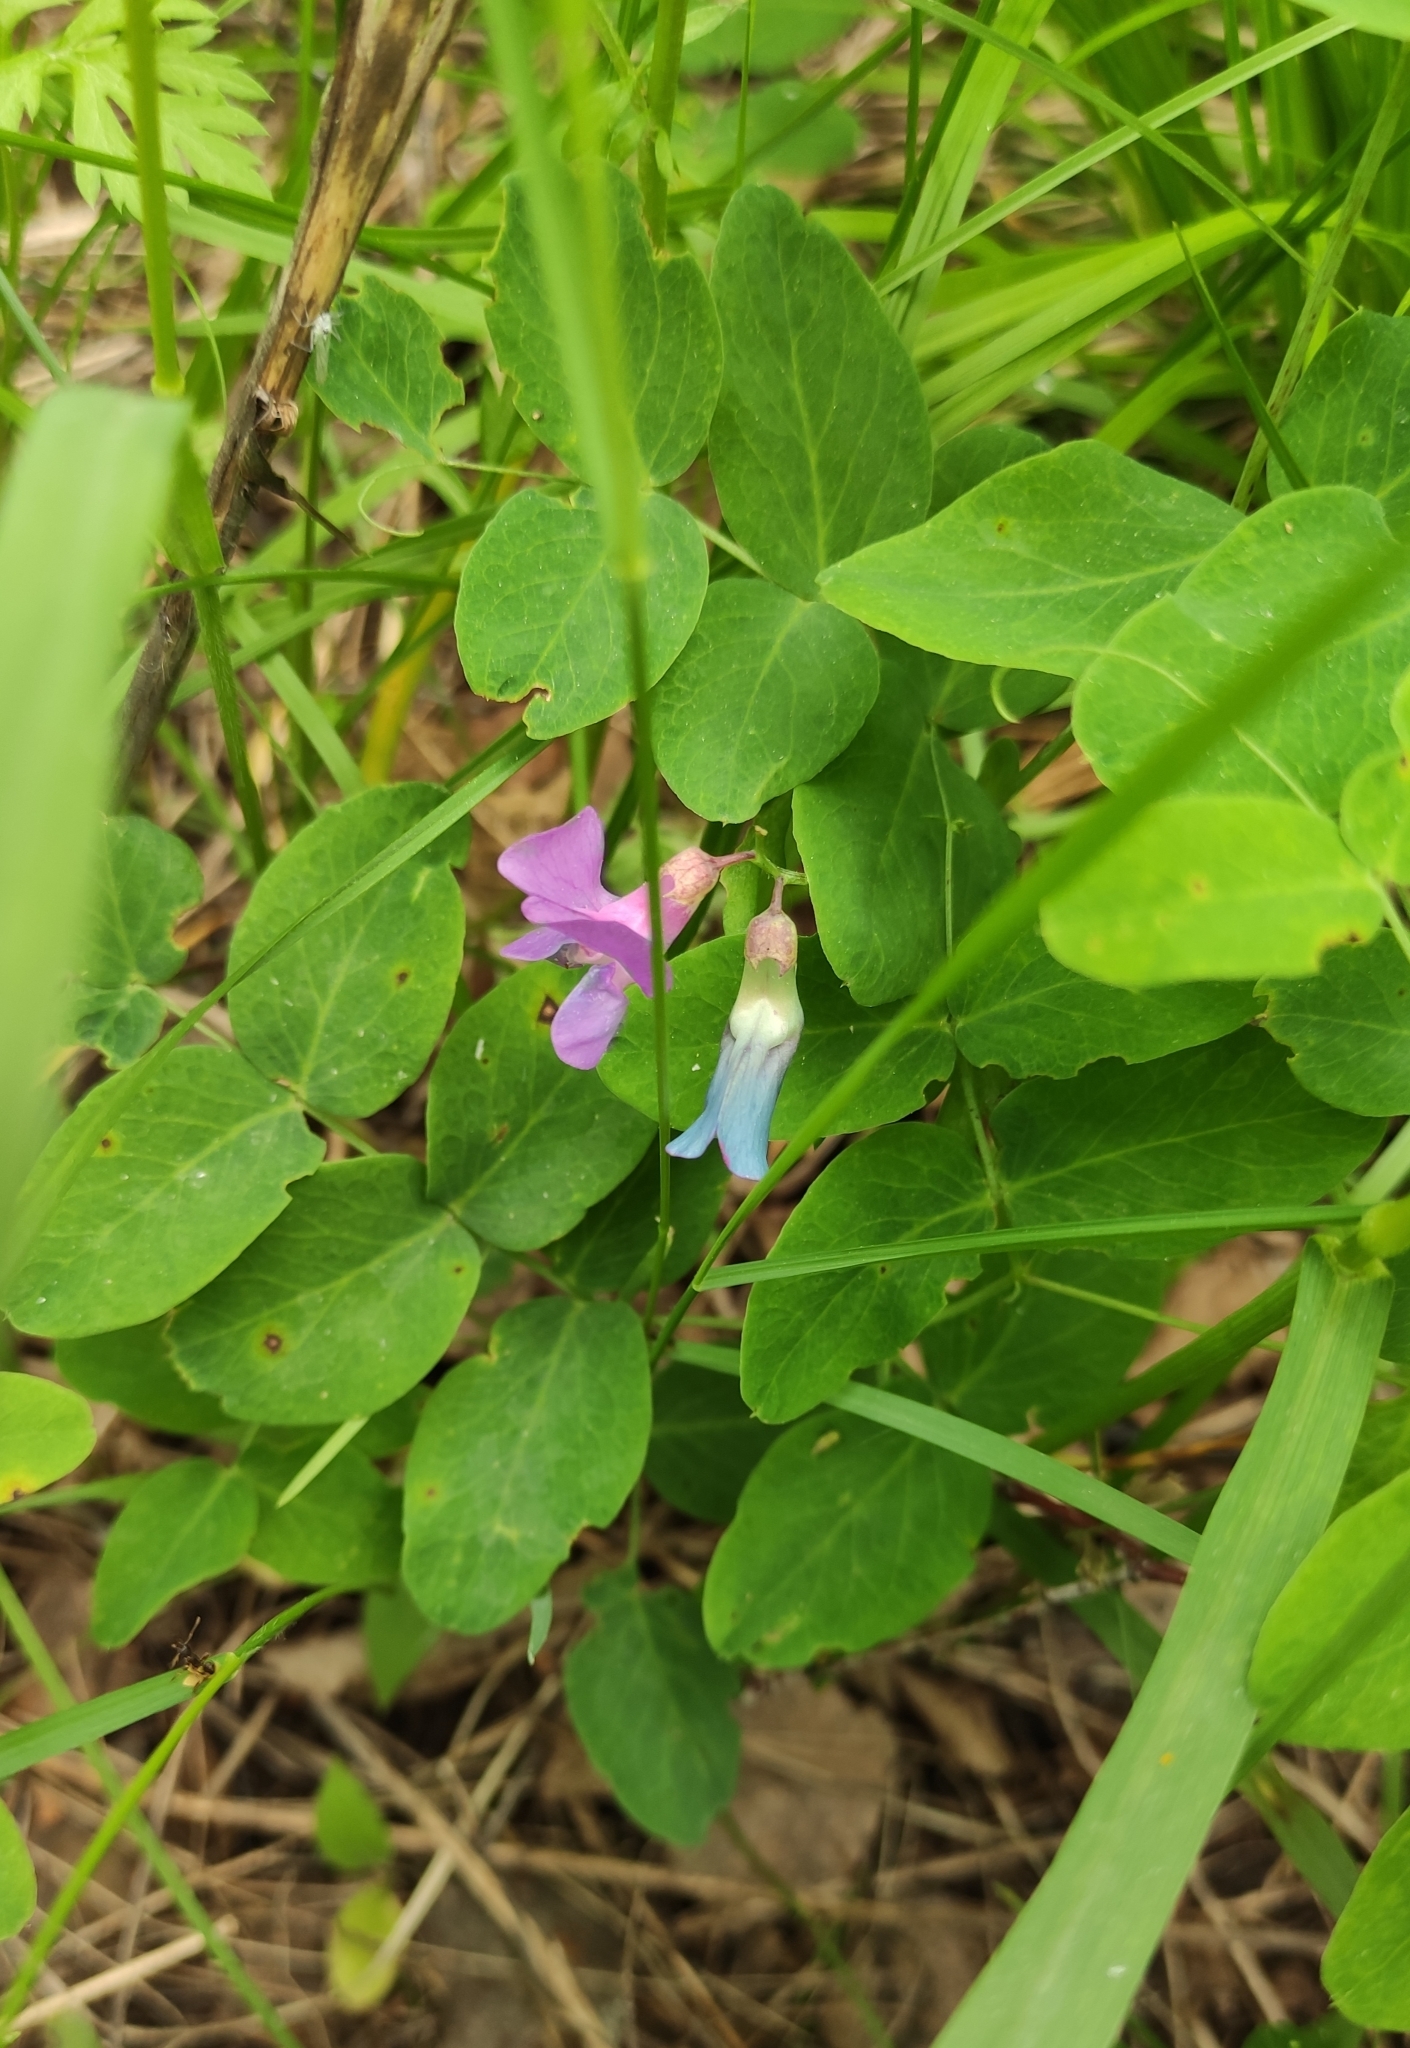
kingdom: Plantae
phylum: Tracheophyta
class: Magnoliopsida
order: Fabales
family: Fabaceae
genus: Lathyrus
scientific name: Lathyrus humilis
